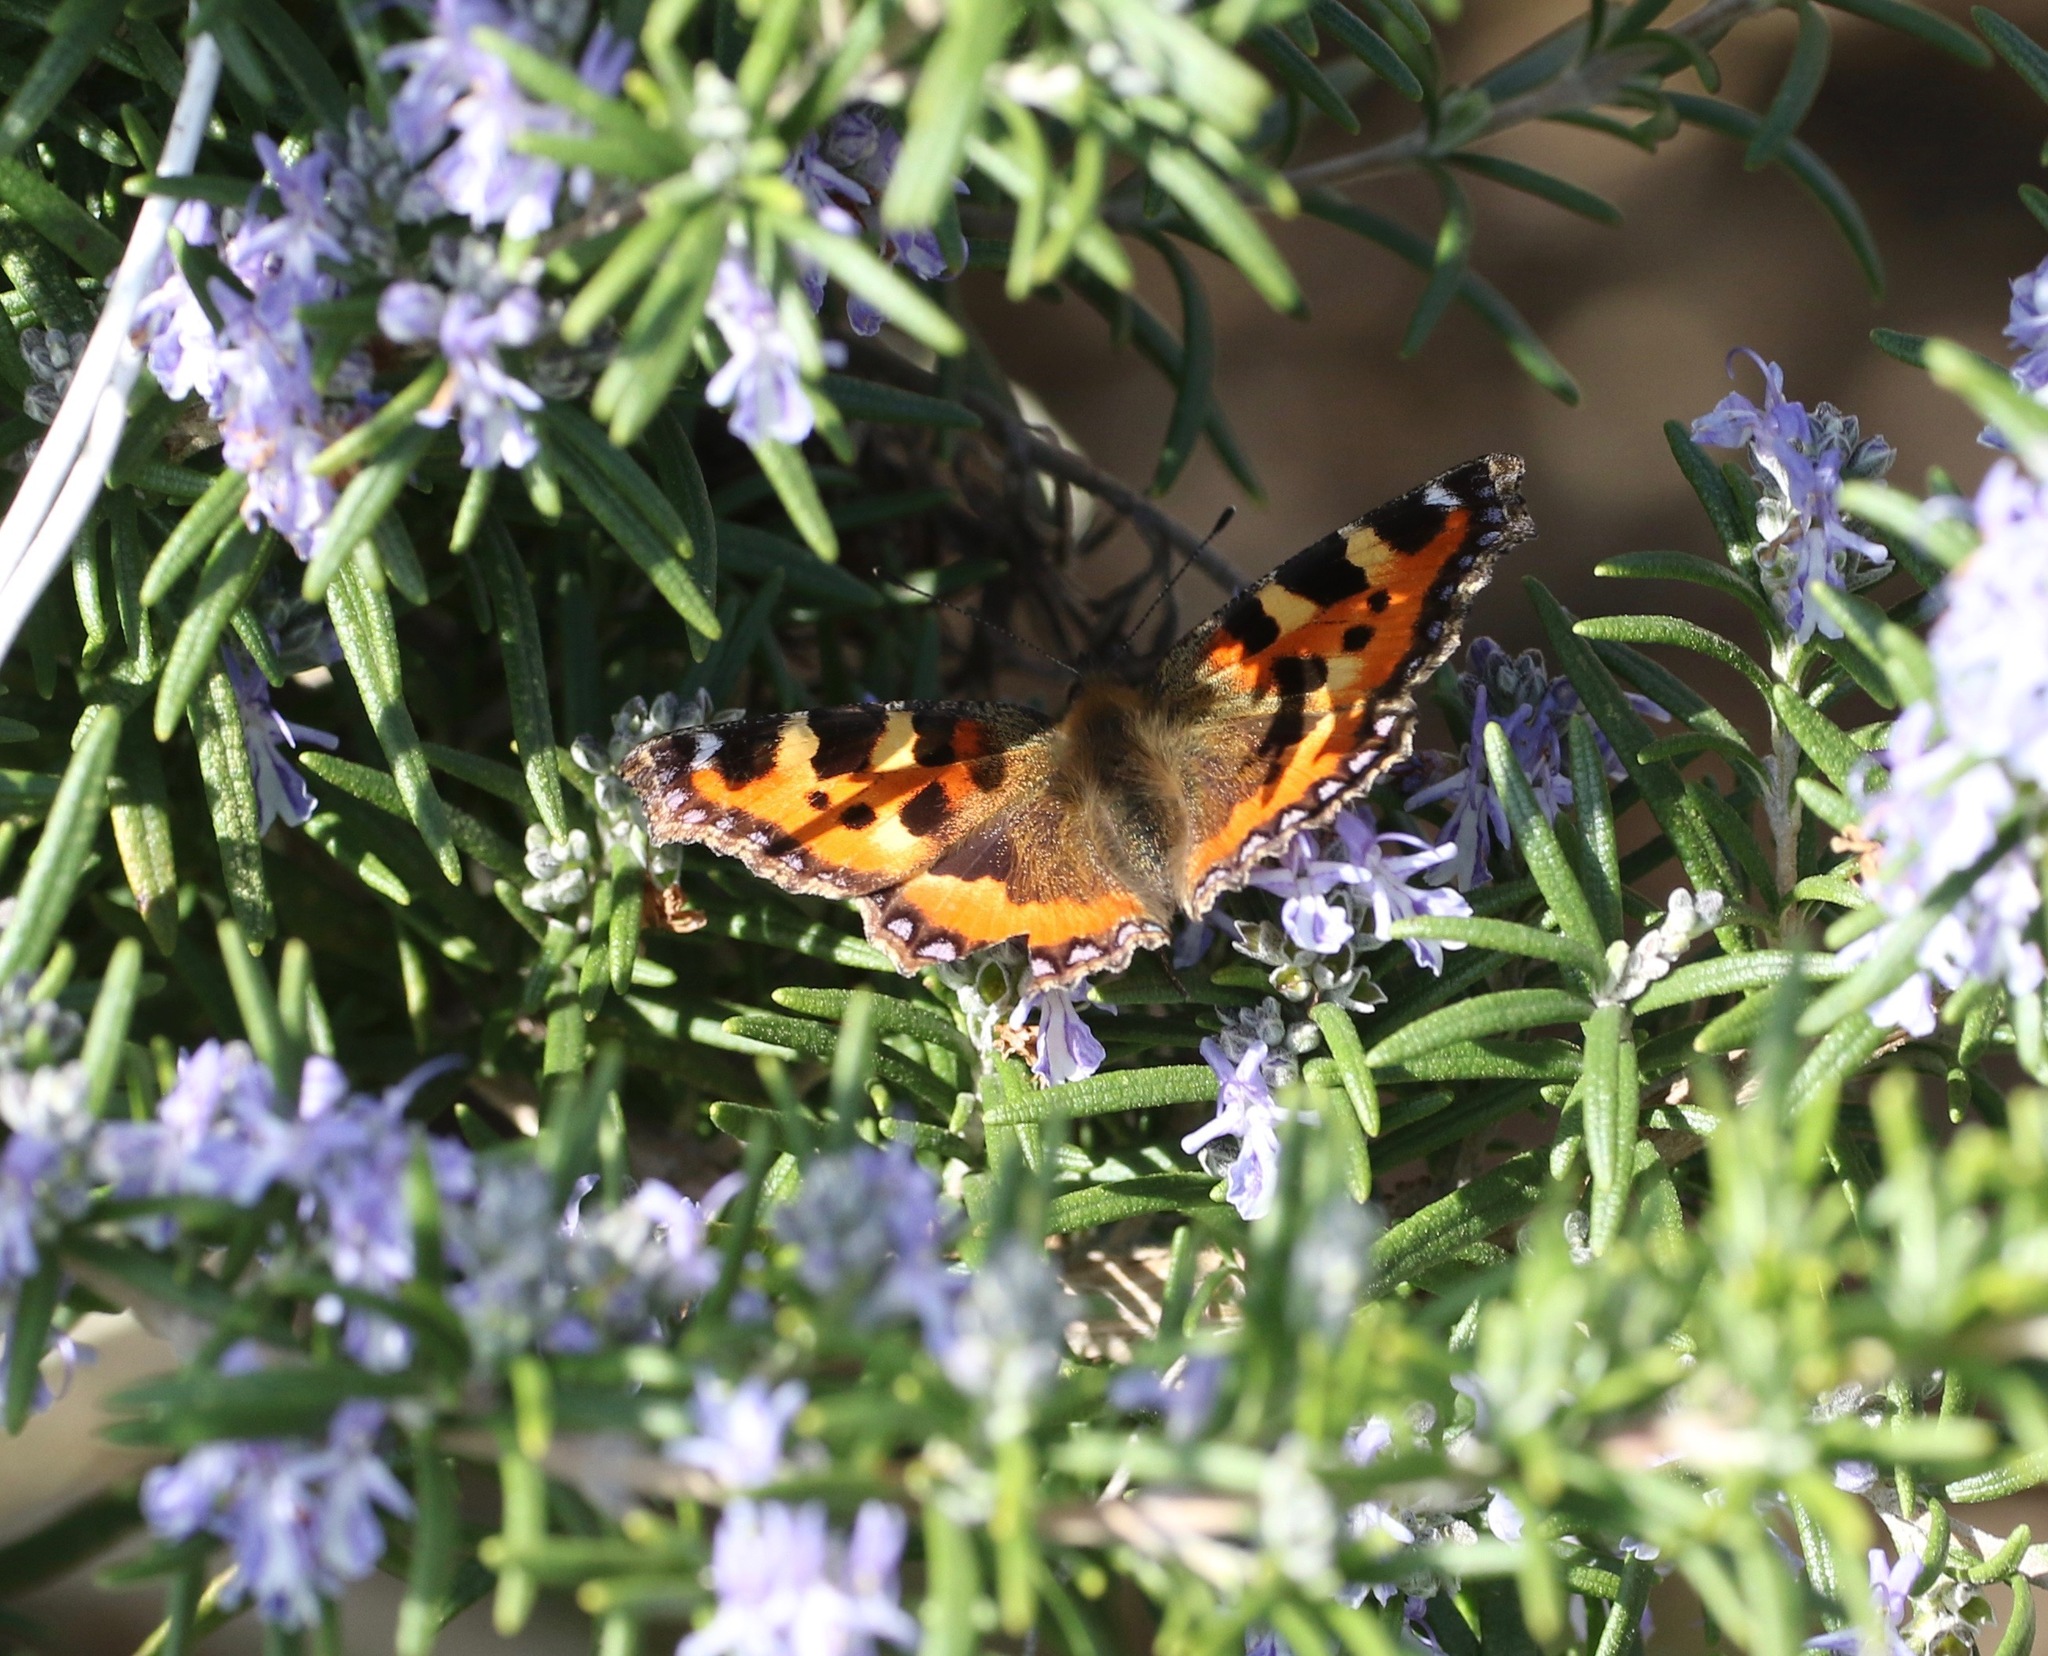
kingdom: Animalia
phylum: Arthropoda
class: Insecta
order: Lepidoptera
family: Nymphalidae
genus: Aglais
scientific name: Aglais urticae
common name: Small tortoiseshell
